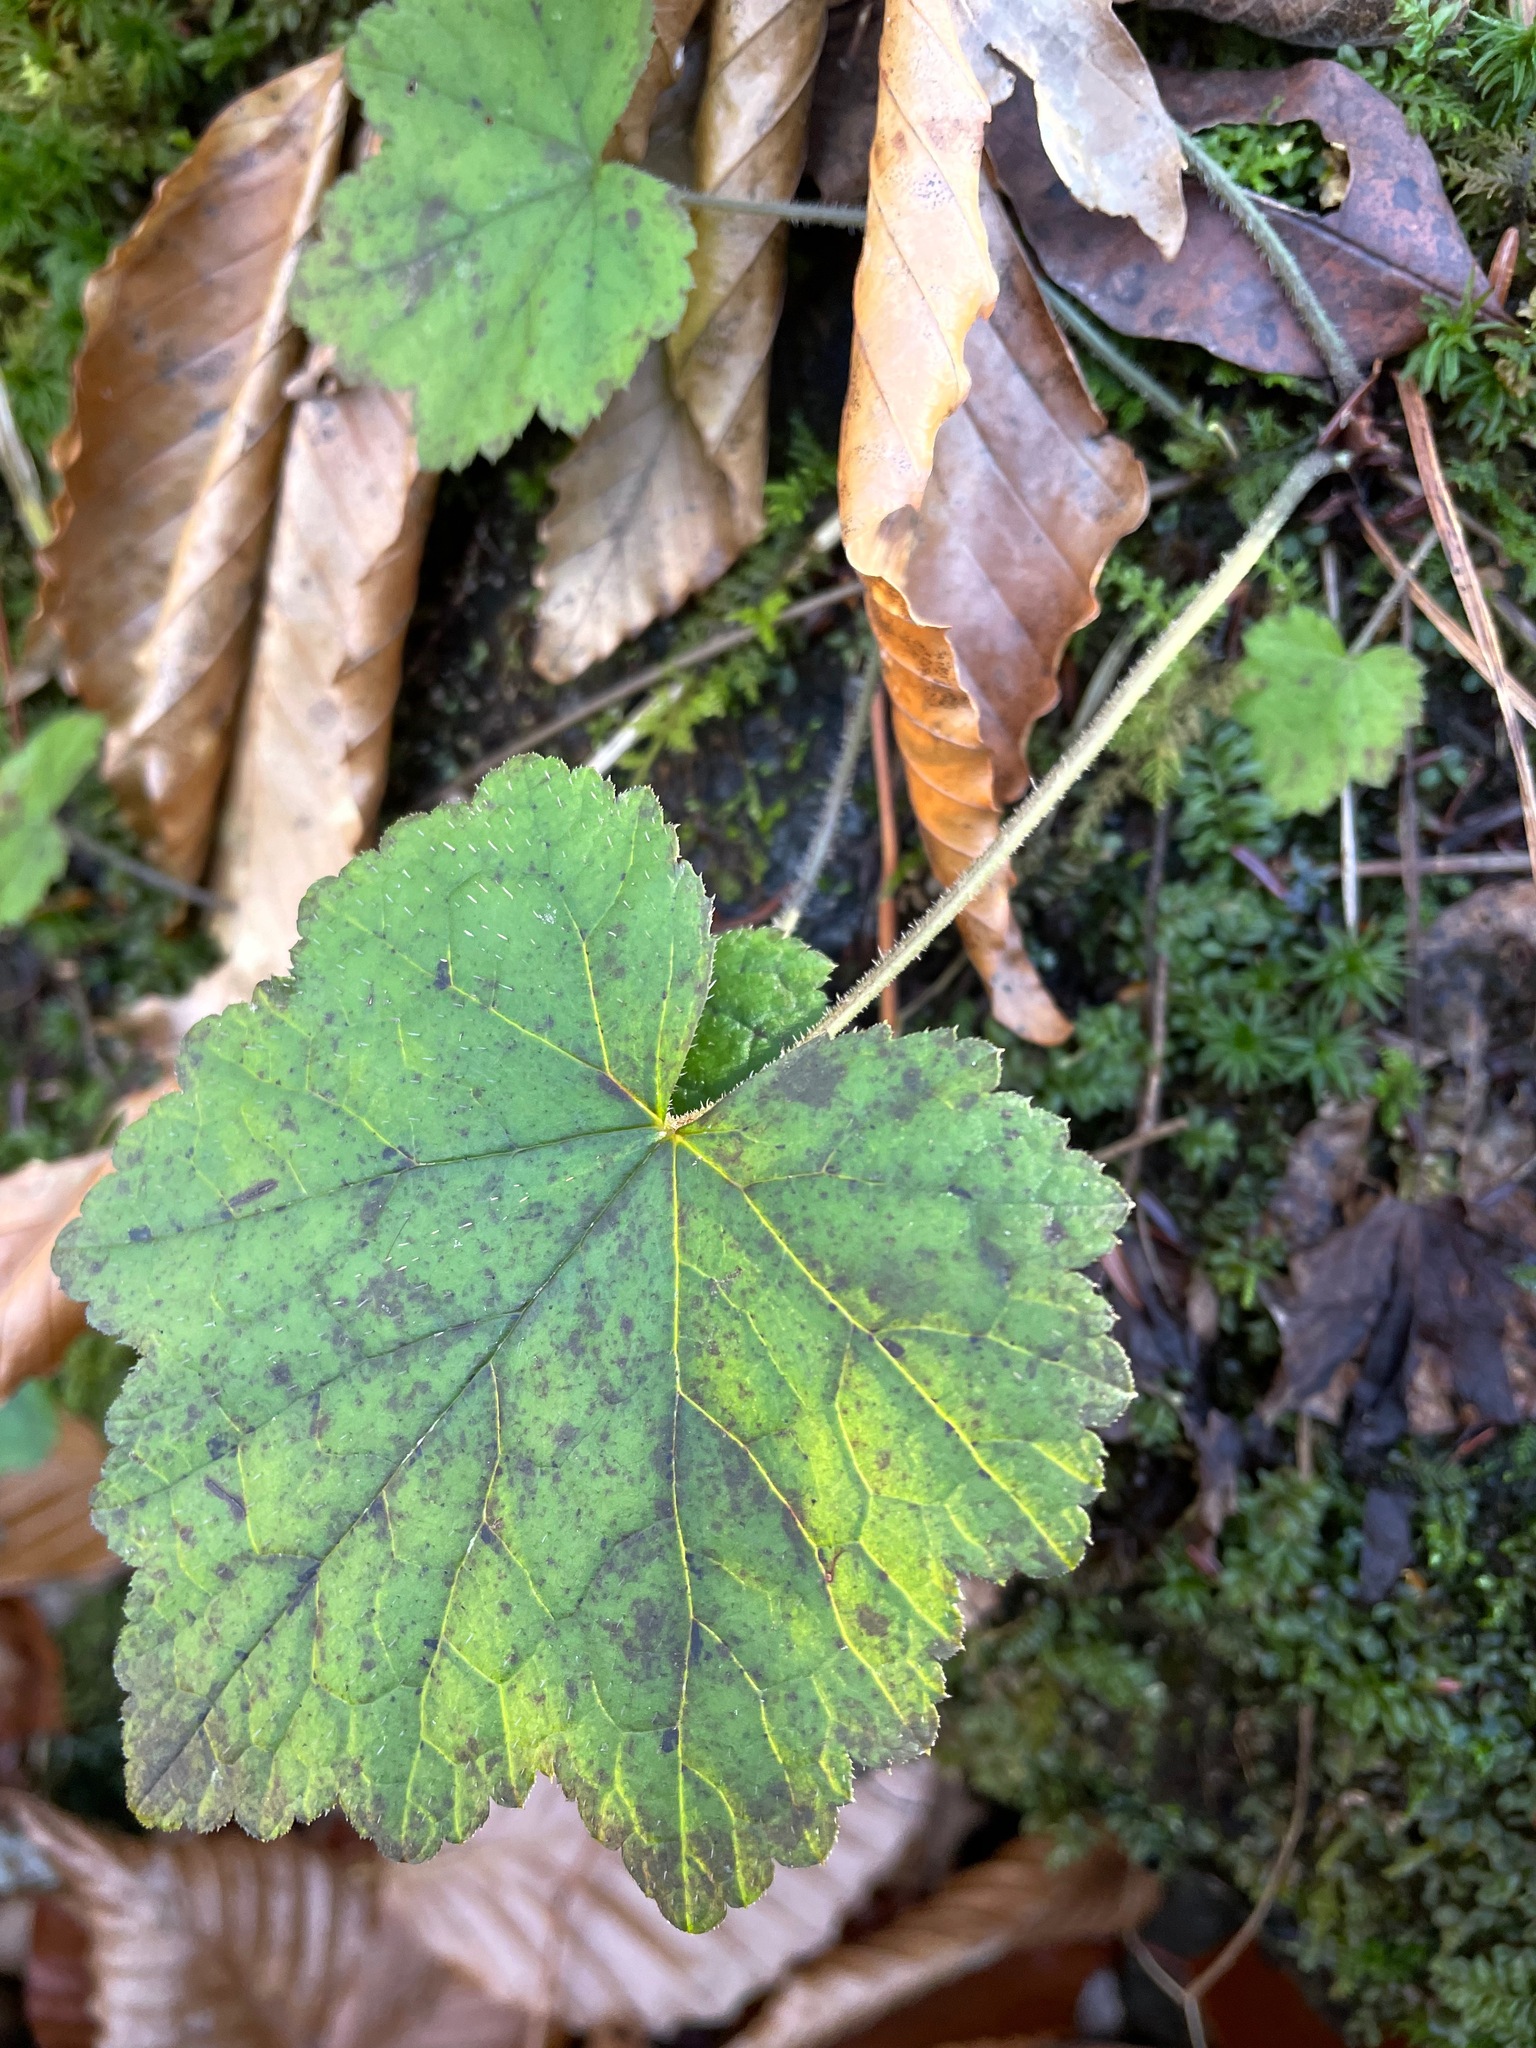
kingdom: Plantae
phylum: Tracheophyta
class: Magnoliopsida
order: Saxifragales
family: Saxifragaceae
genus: Tiarella
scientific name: Tiarella stolonifera
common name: Stoloniferous foamflower
